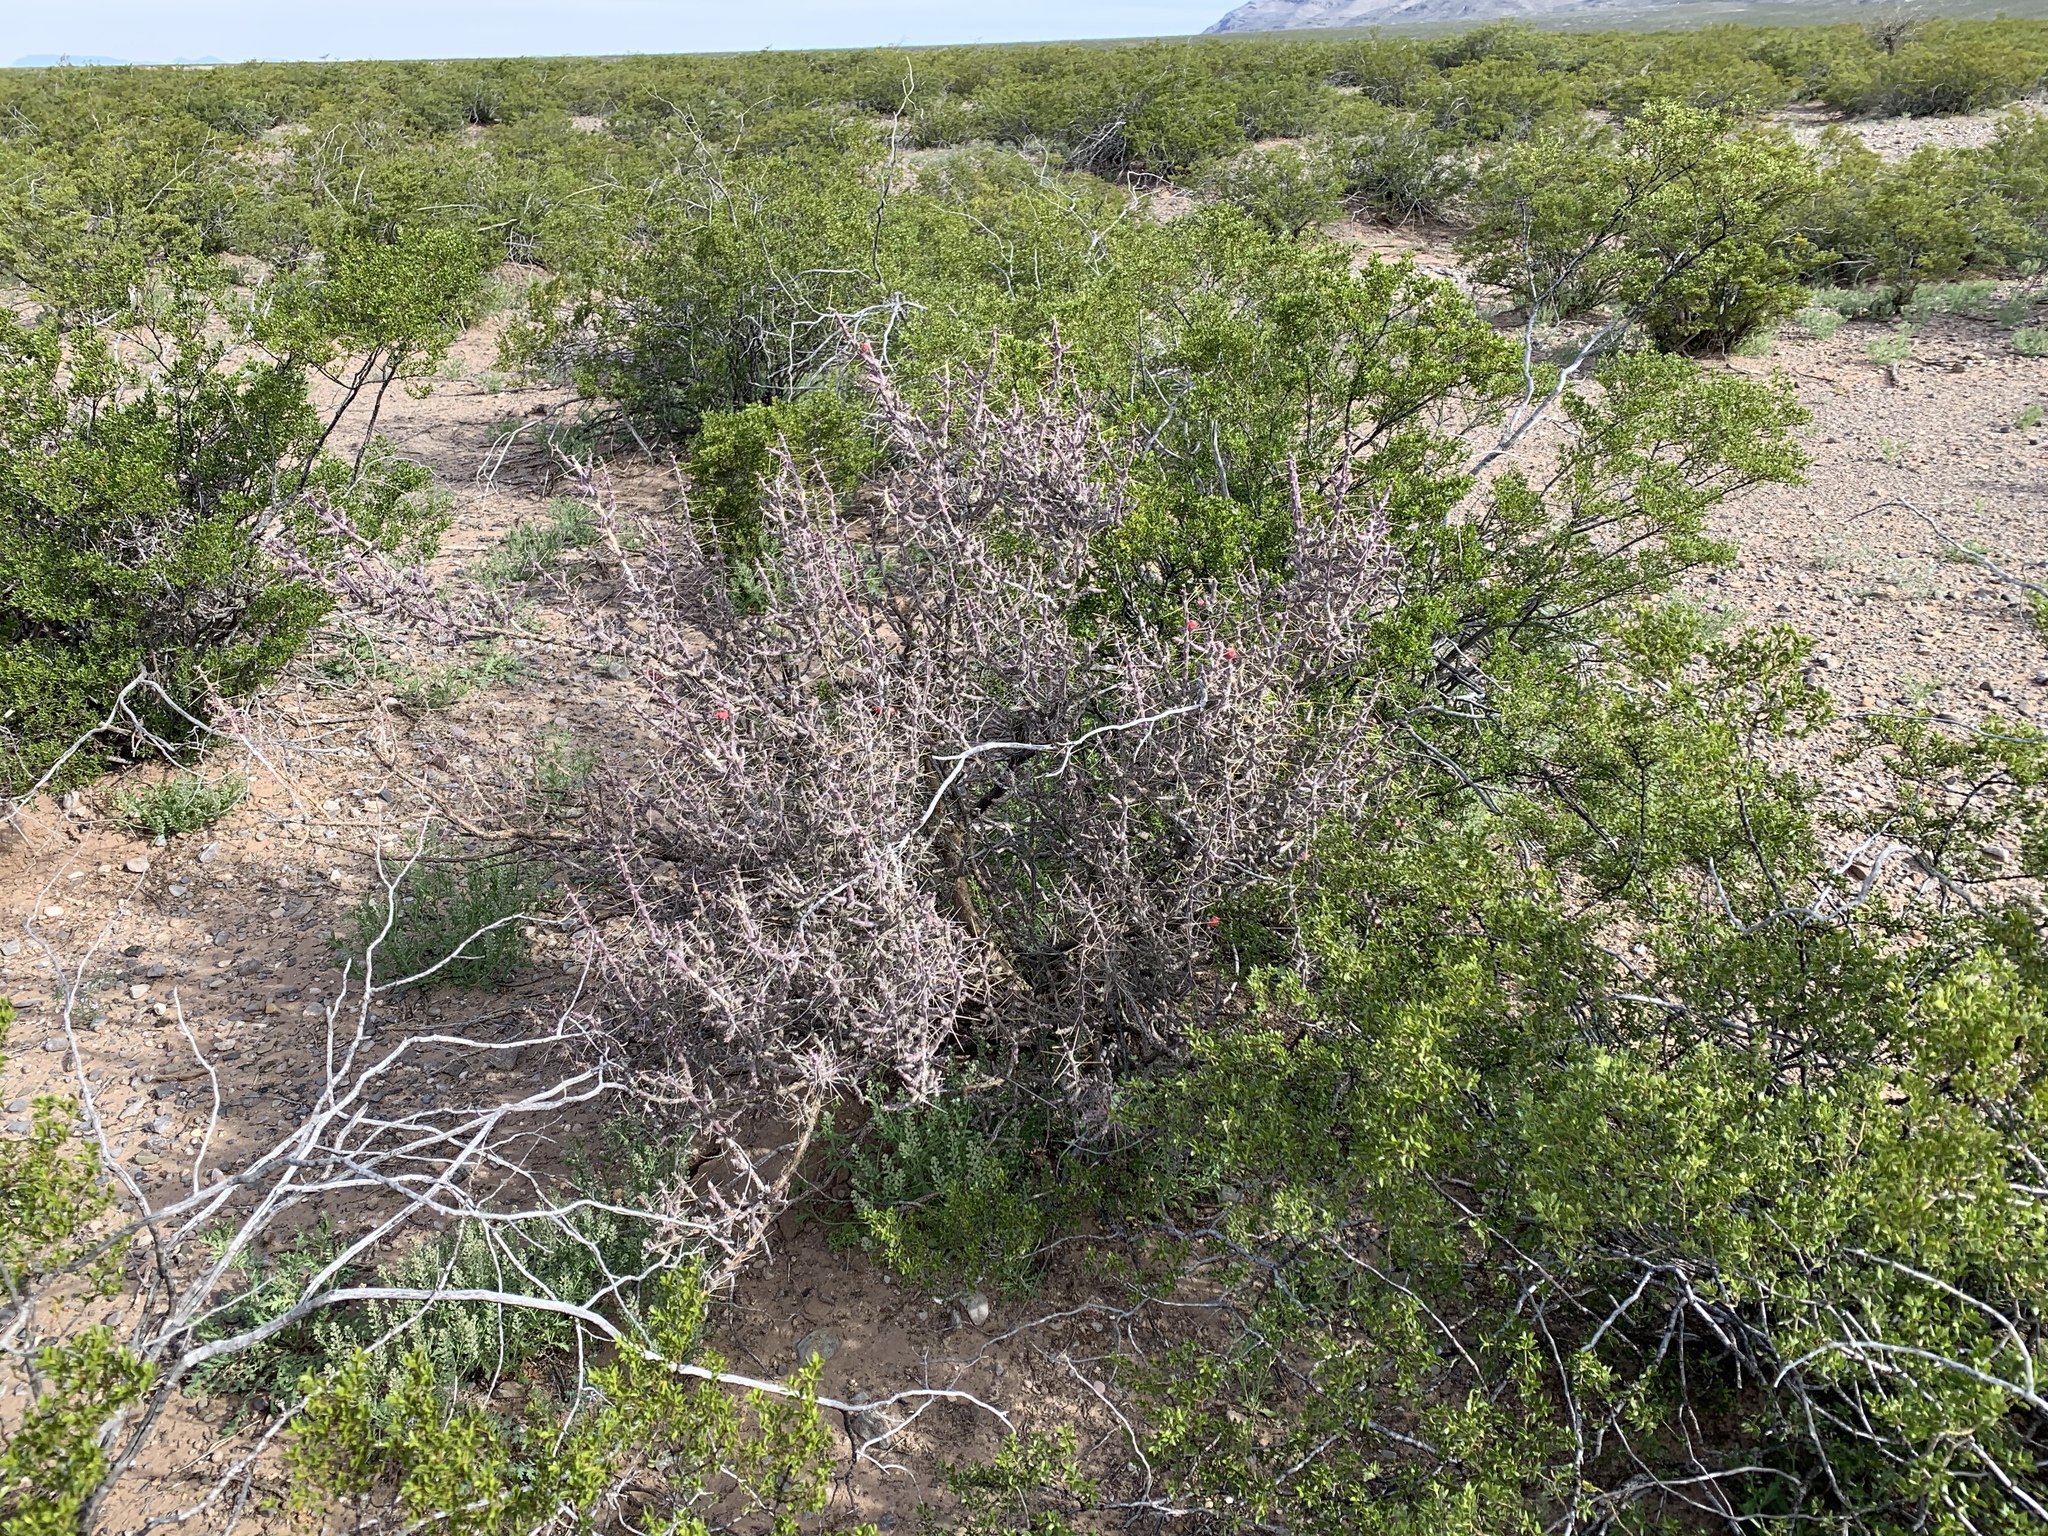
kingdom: Plantae
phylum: Tracheophyta
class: Magnoliopsida
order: Caryophyllales
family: Cactaceae
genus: Cylindropuntia
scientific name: Cylindropuntia leptocaulis
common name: Christmas cactus
